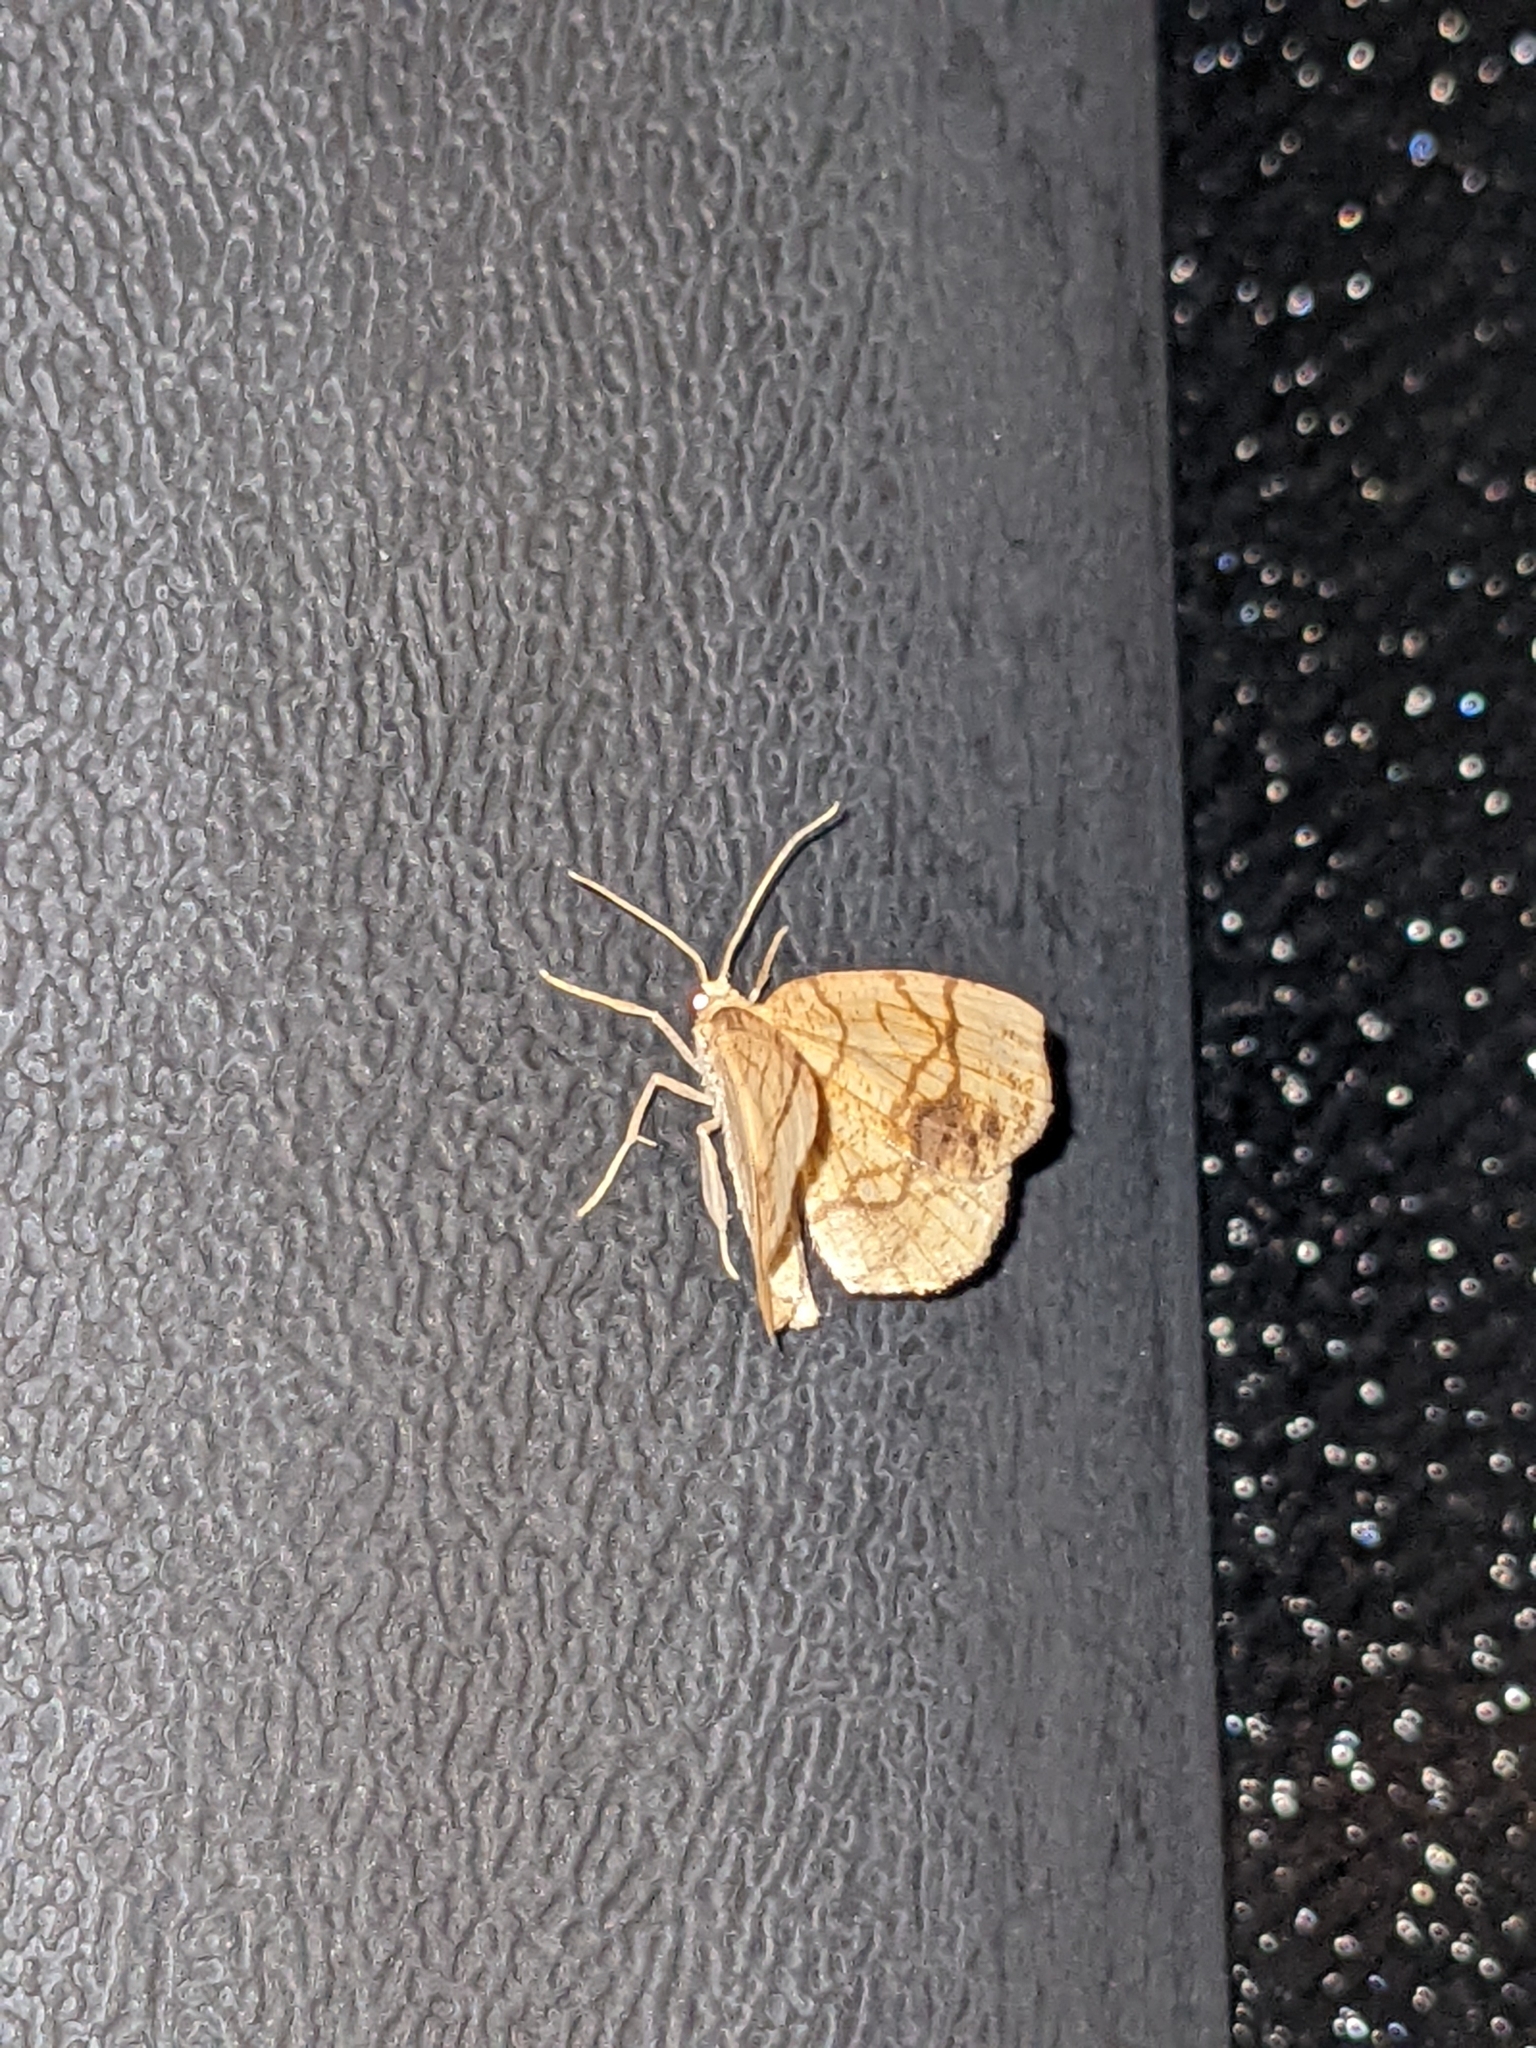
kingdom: Animalia
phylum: Arthropoda
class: Insecta
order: Lepidoptera
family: Geometridae
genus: Nematocampa
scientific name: Nematocampa resistaria
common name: Horned spanworm moth
